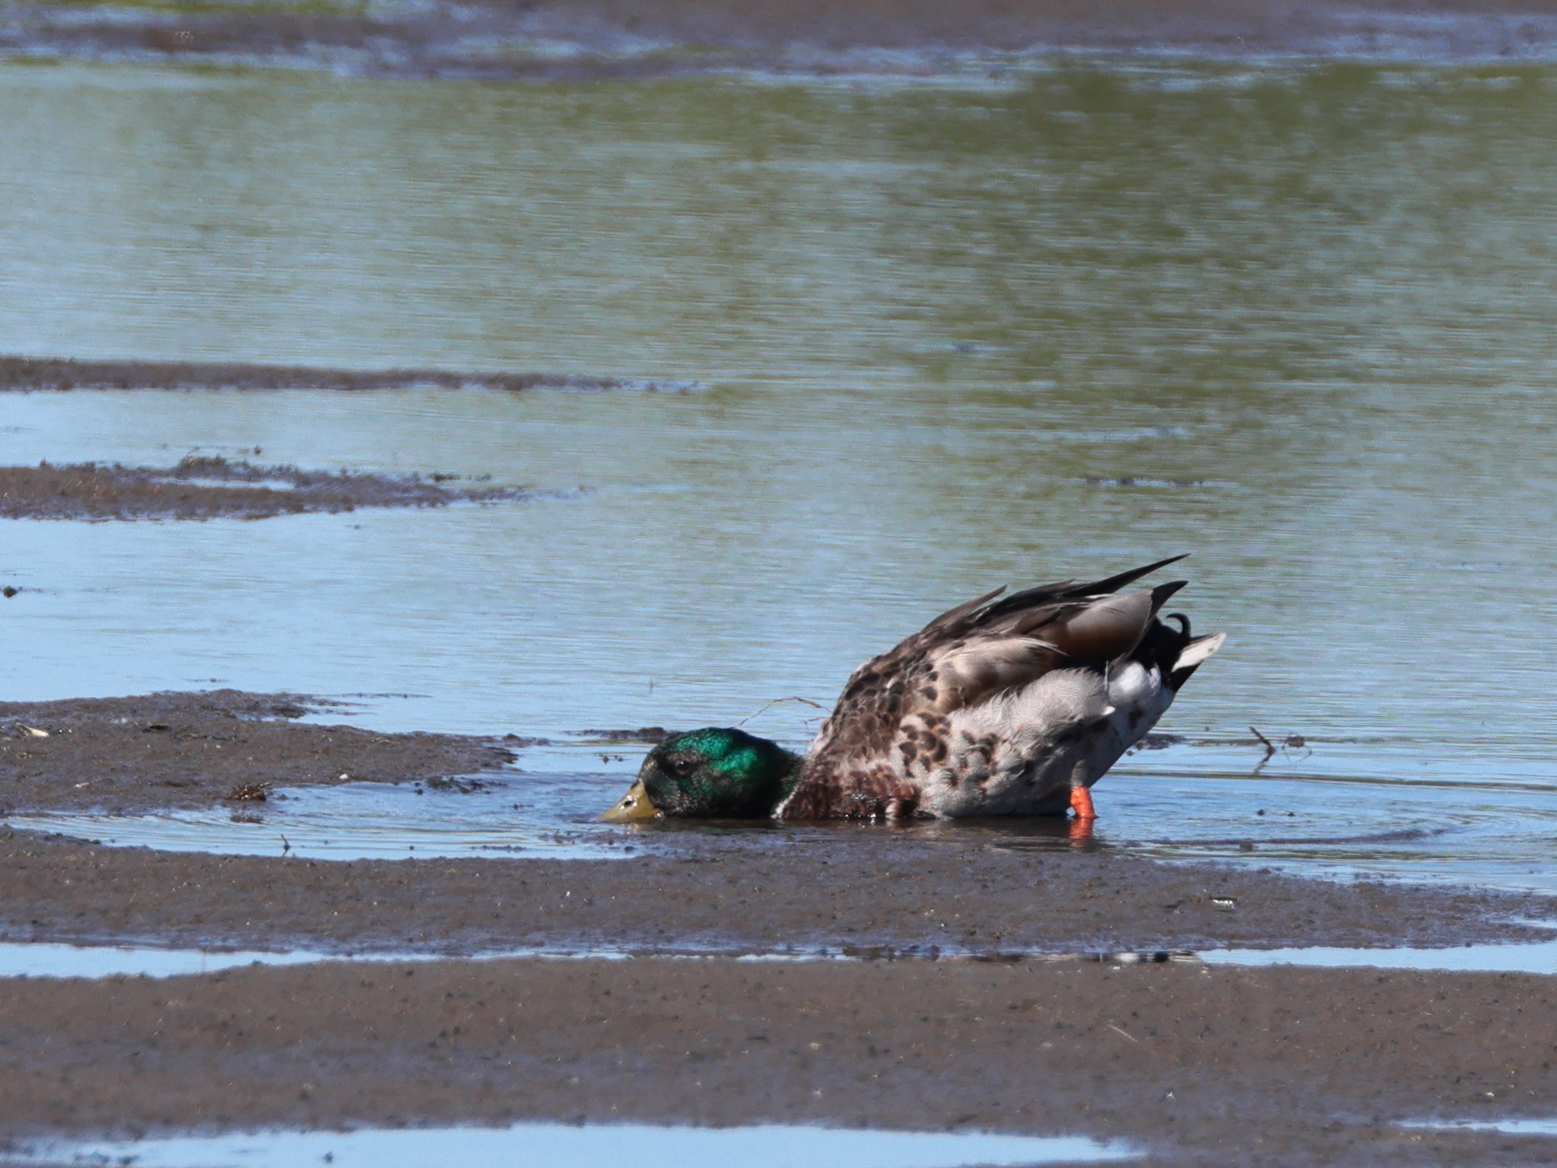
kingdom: Animalia
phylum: Chordata
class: Aves
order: Anseriformes
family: Anatidae
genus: Anas
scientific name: Anas platyrhynchos
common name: Mallard
